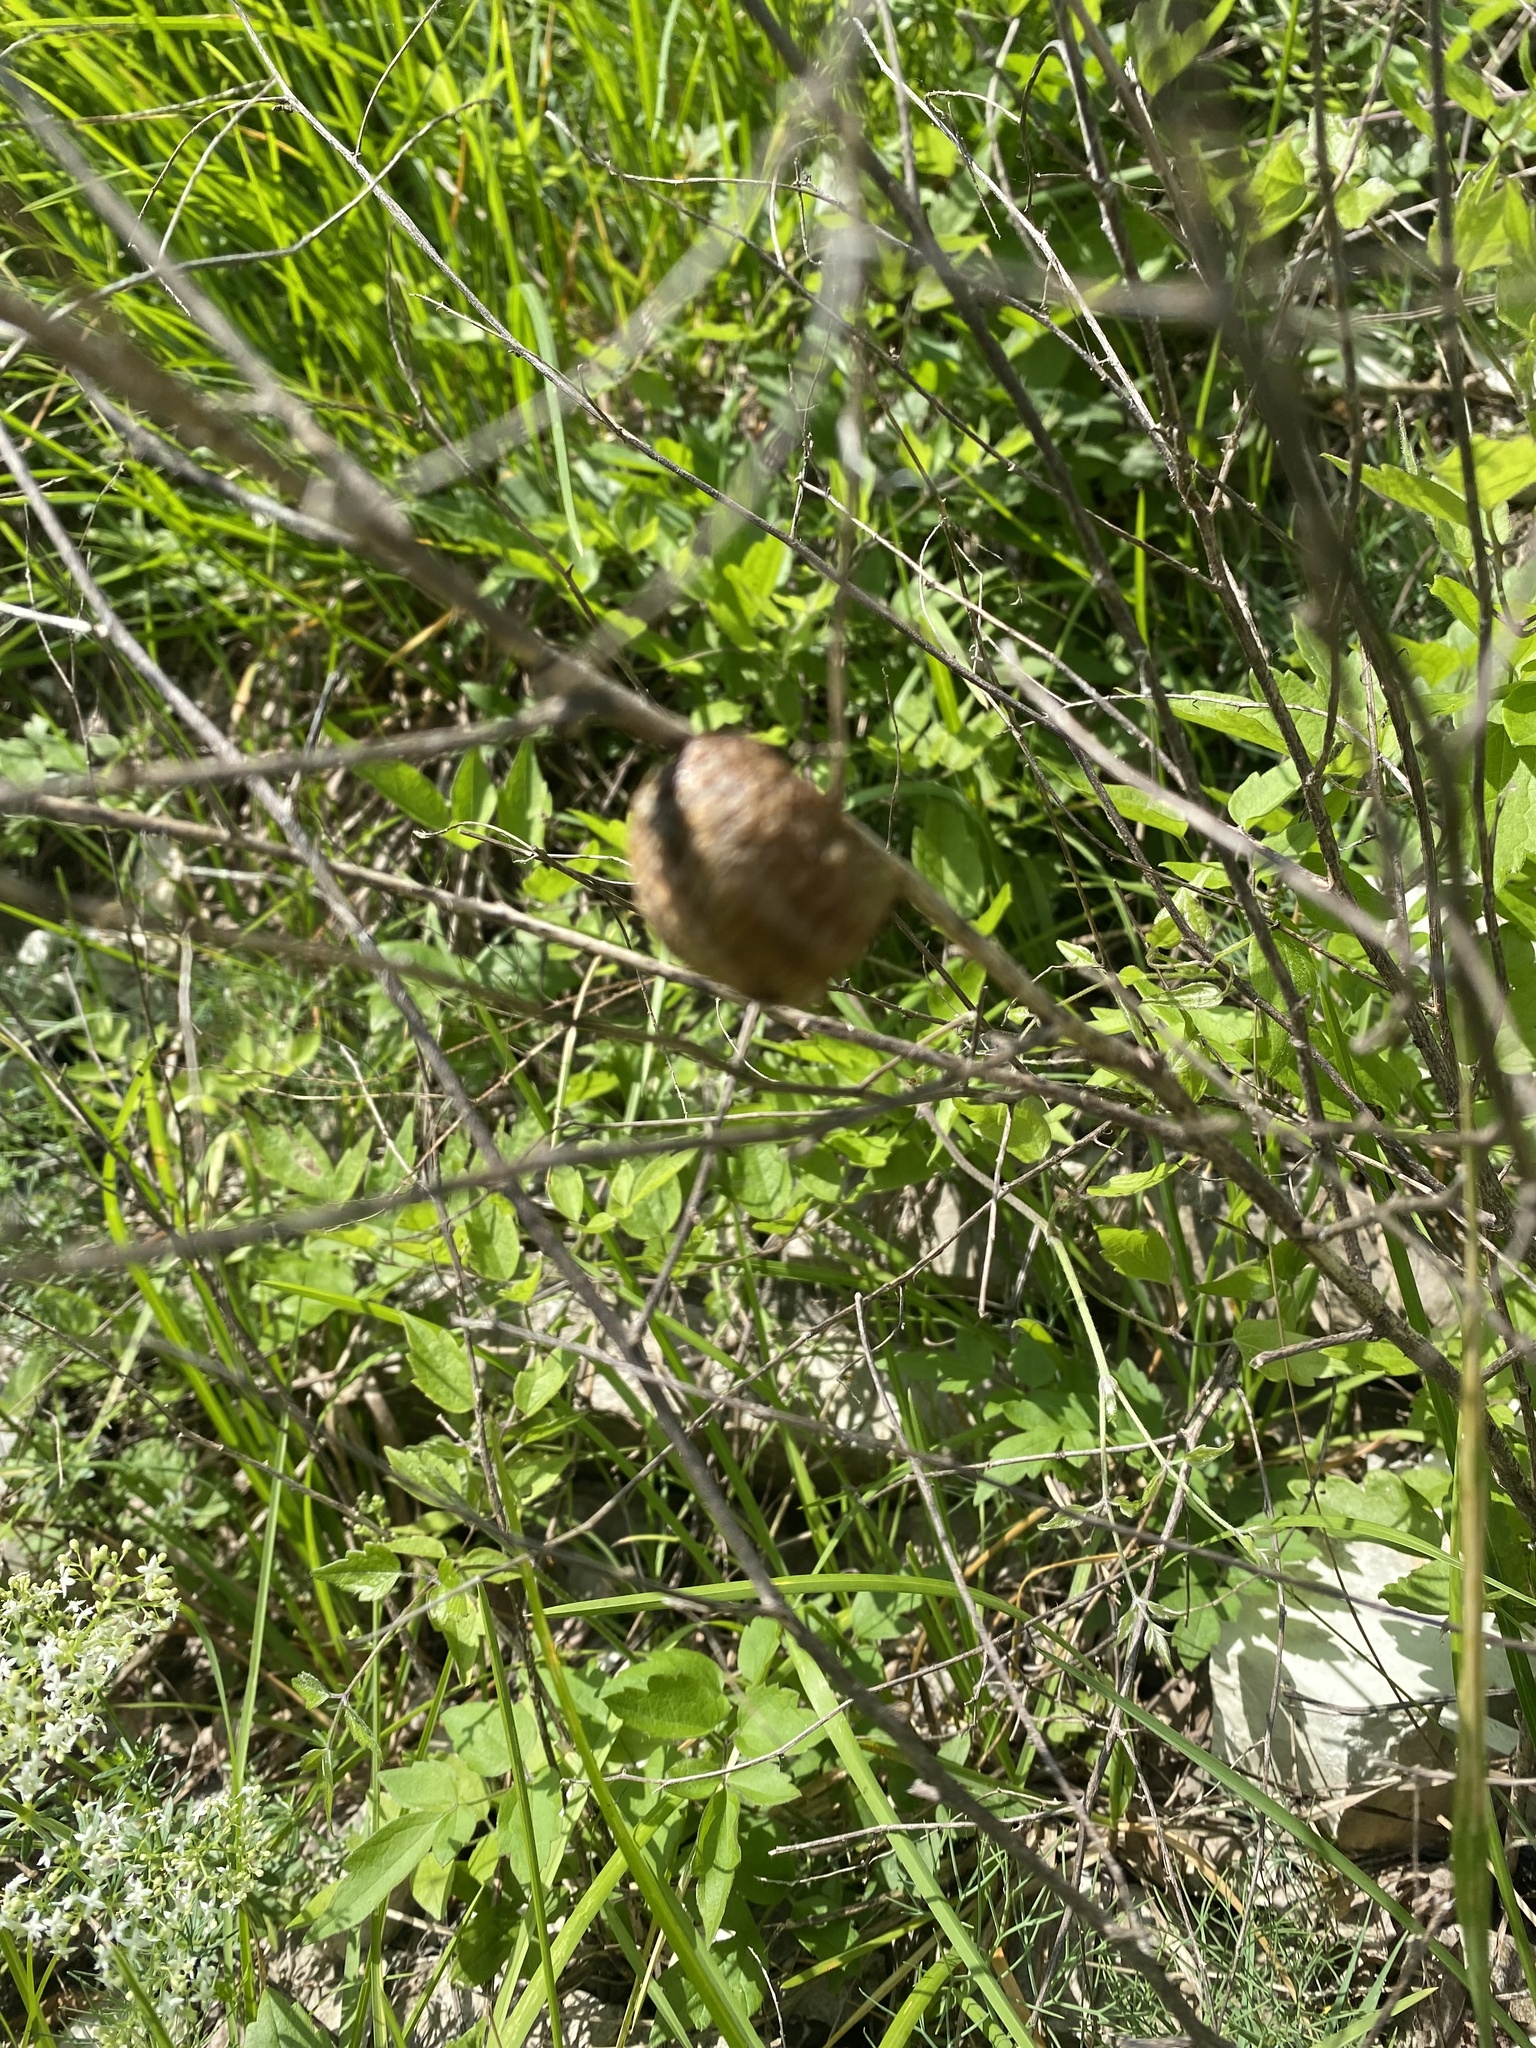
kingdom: Animalia
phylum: Arthropoda
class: Insecta
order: Mantodea
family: Mantidae
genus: Hierodula
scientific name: Hierodula transcaucasica
